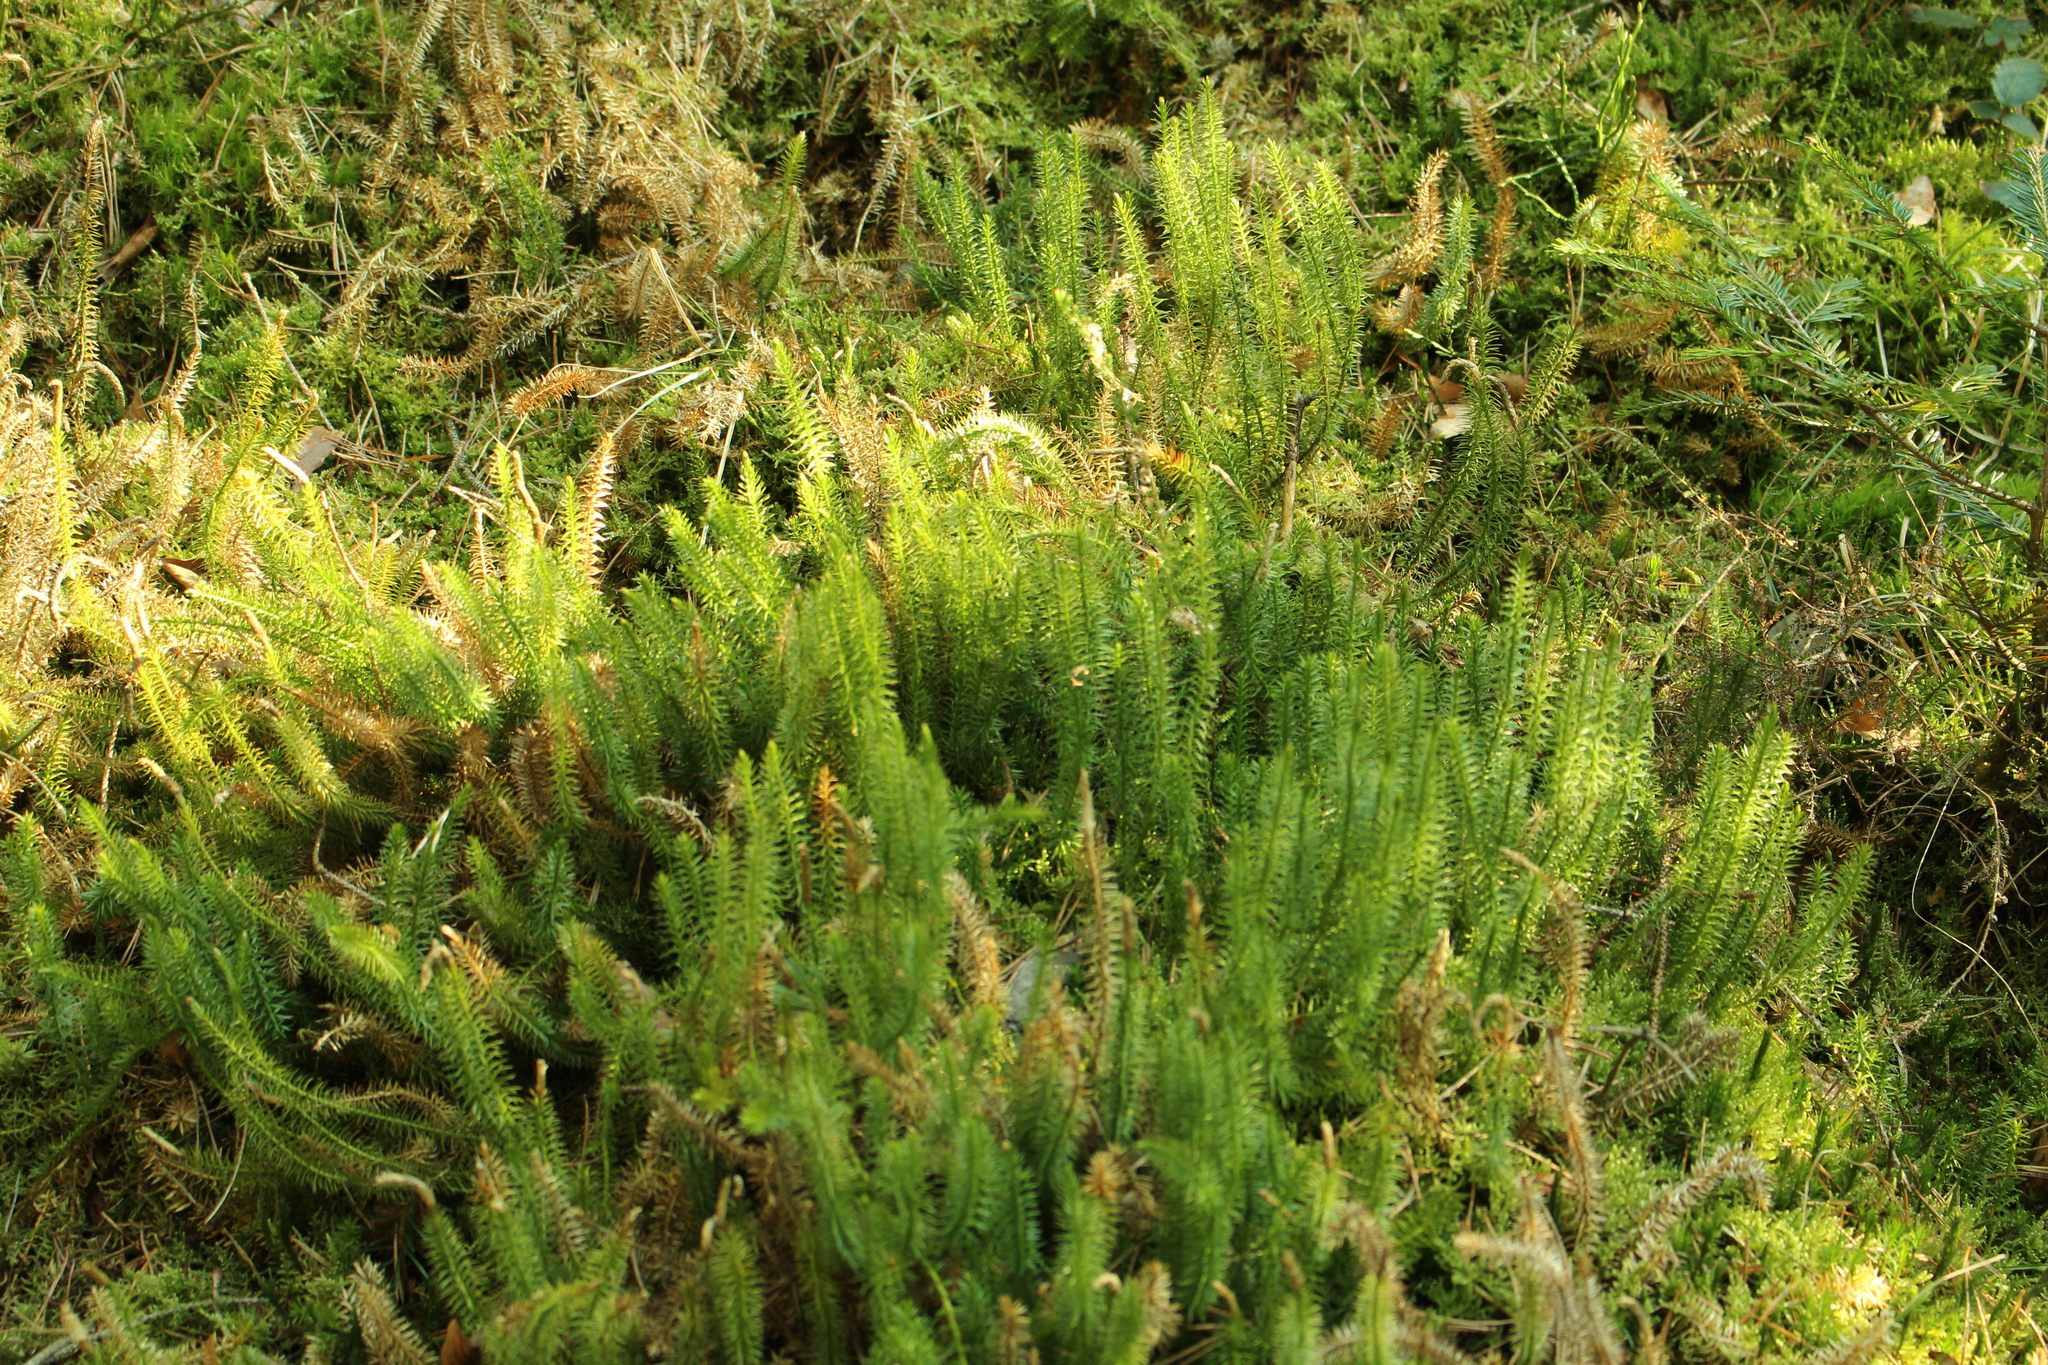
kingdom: Plantae
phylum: Tracheophyta
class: Lycopodiopsida
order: Lycopodiales
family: Lycopodiaceae
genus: Spinulum
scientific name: Spinulum annotinum
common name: Interrupted club-moss
